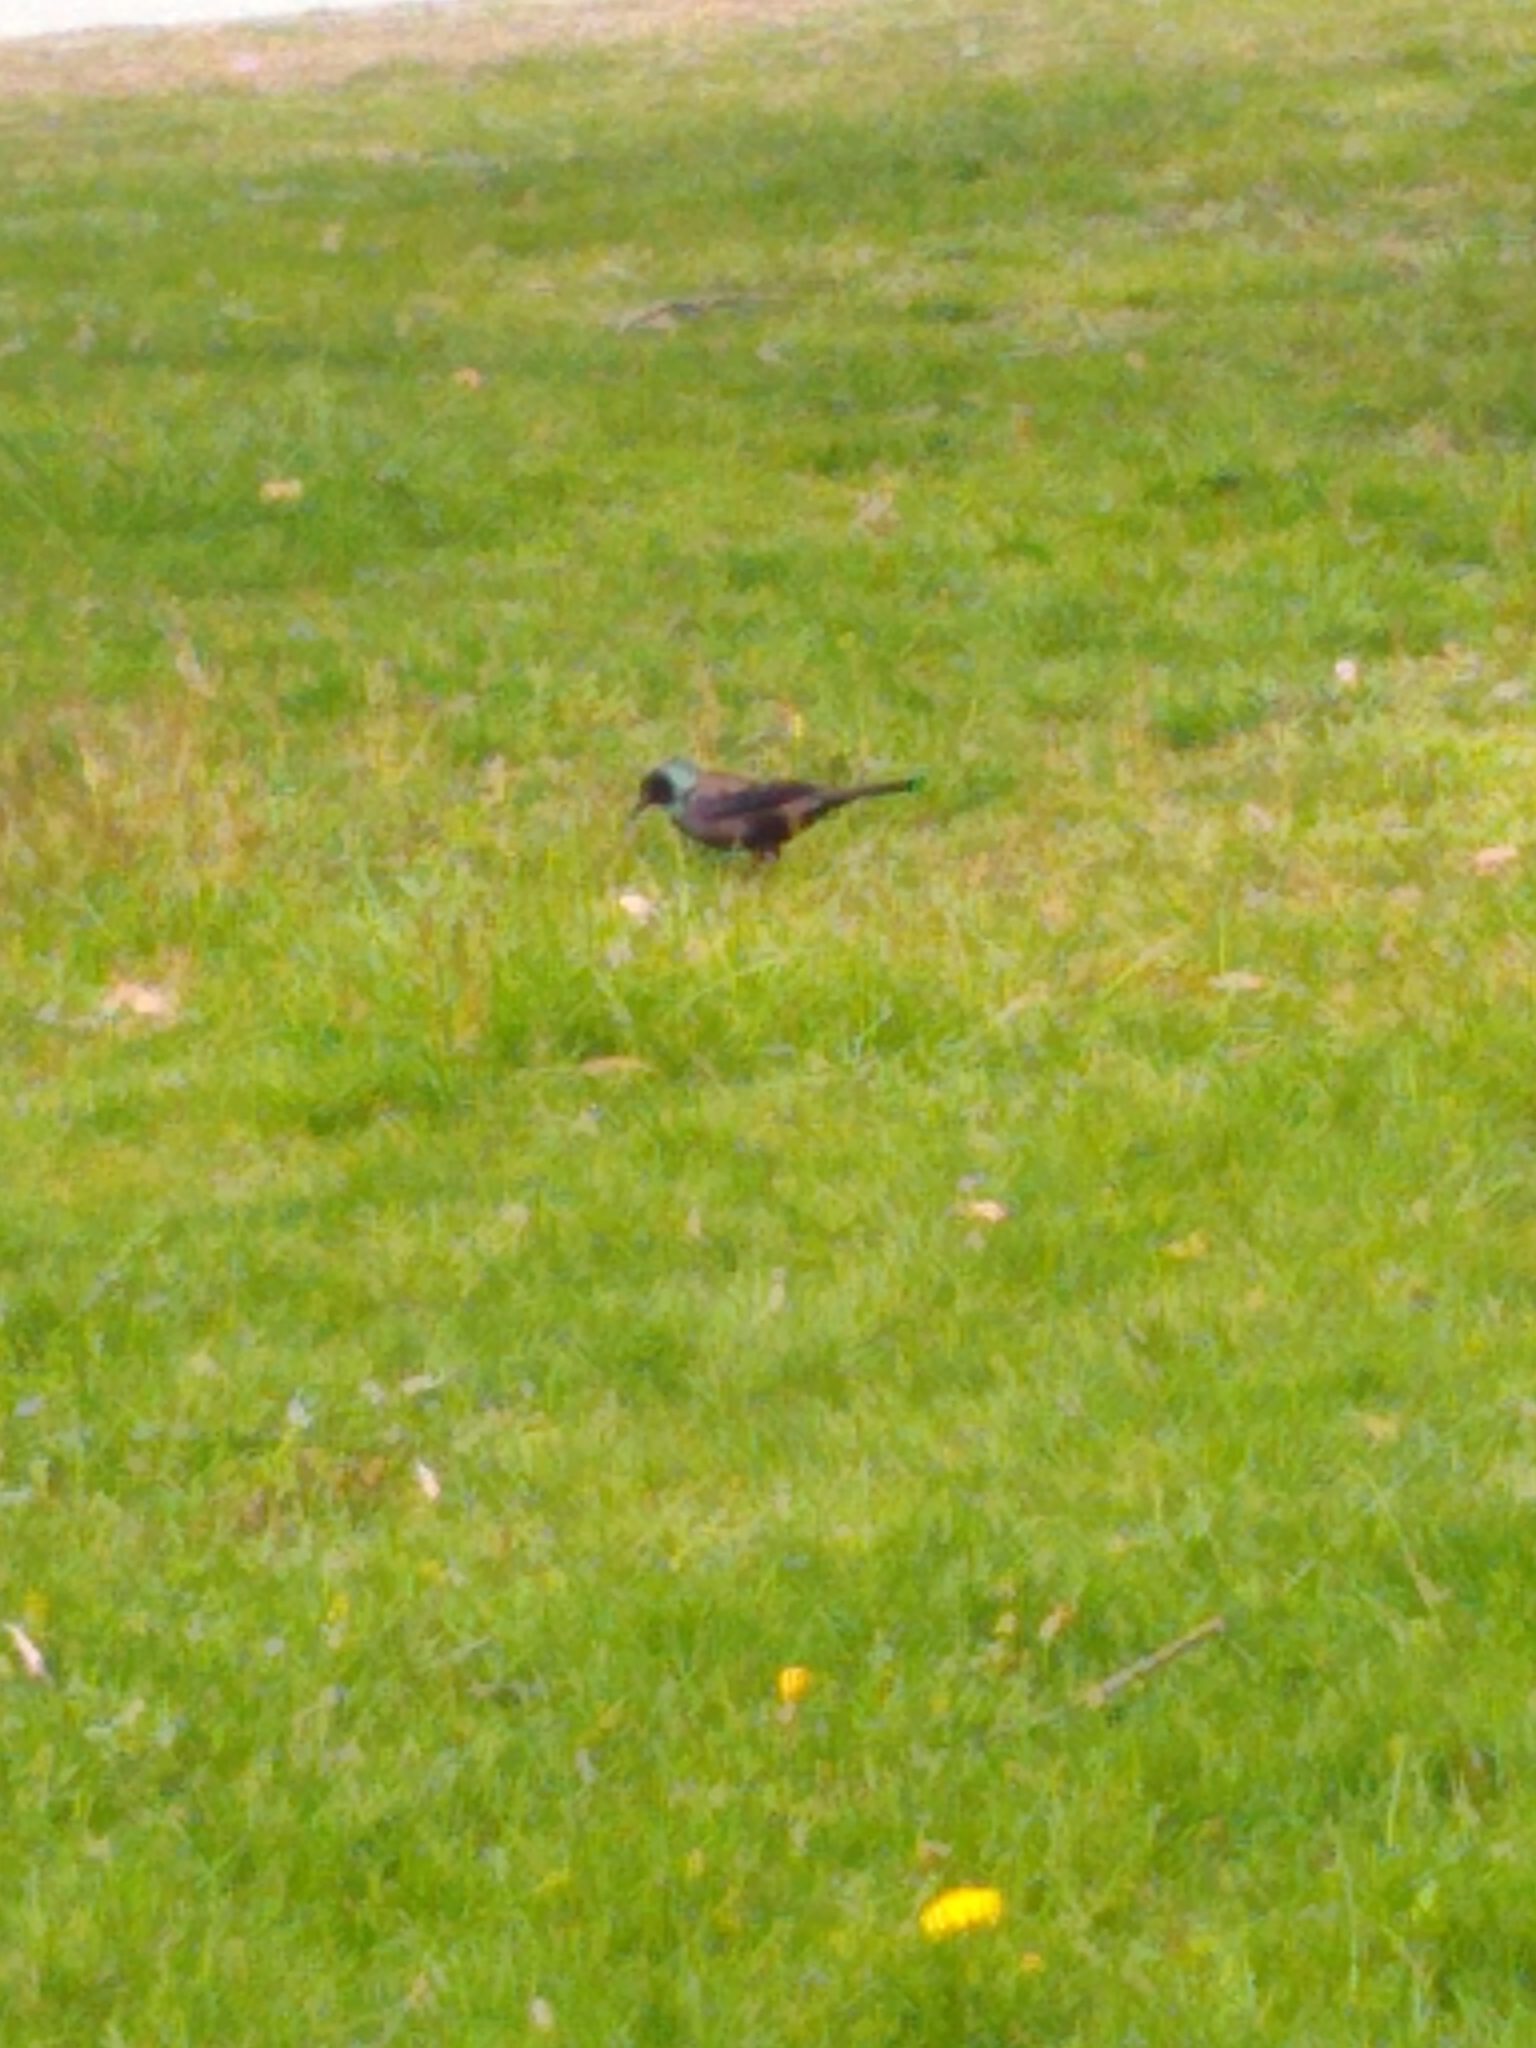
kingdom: Animalia
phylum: Chordata
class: Aves
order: Passeriformes
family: Icteridae
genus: Quiscalus
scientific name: Quiscalus quiscula
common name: Common grackle
